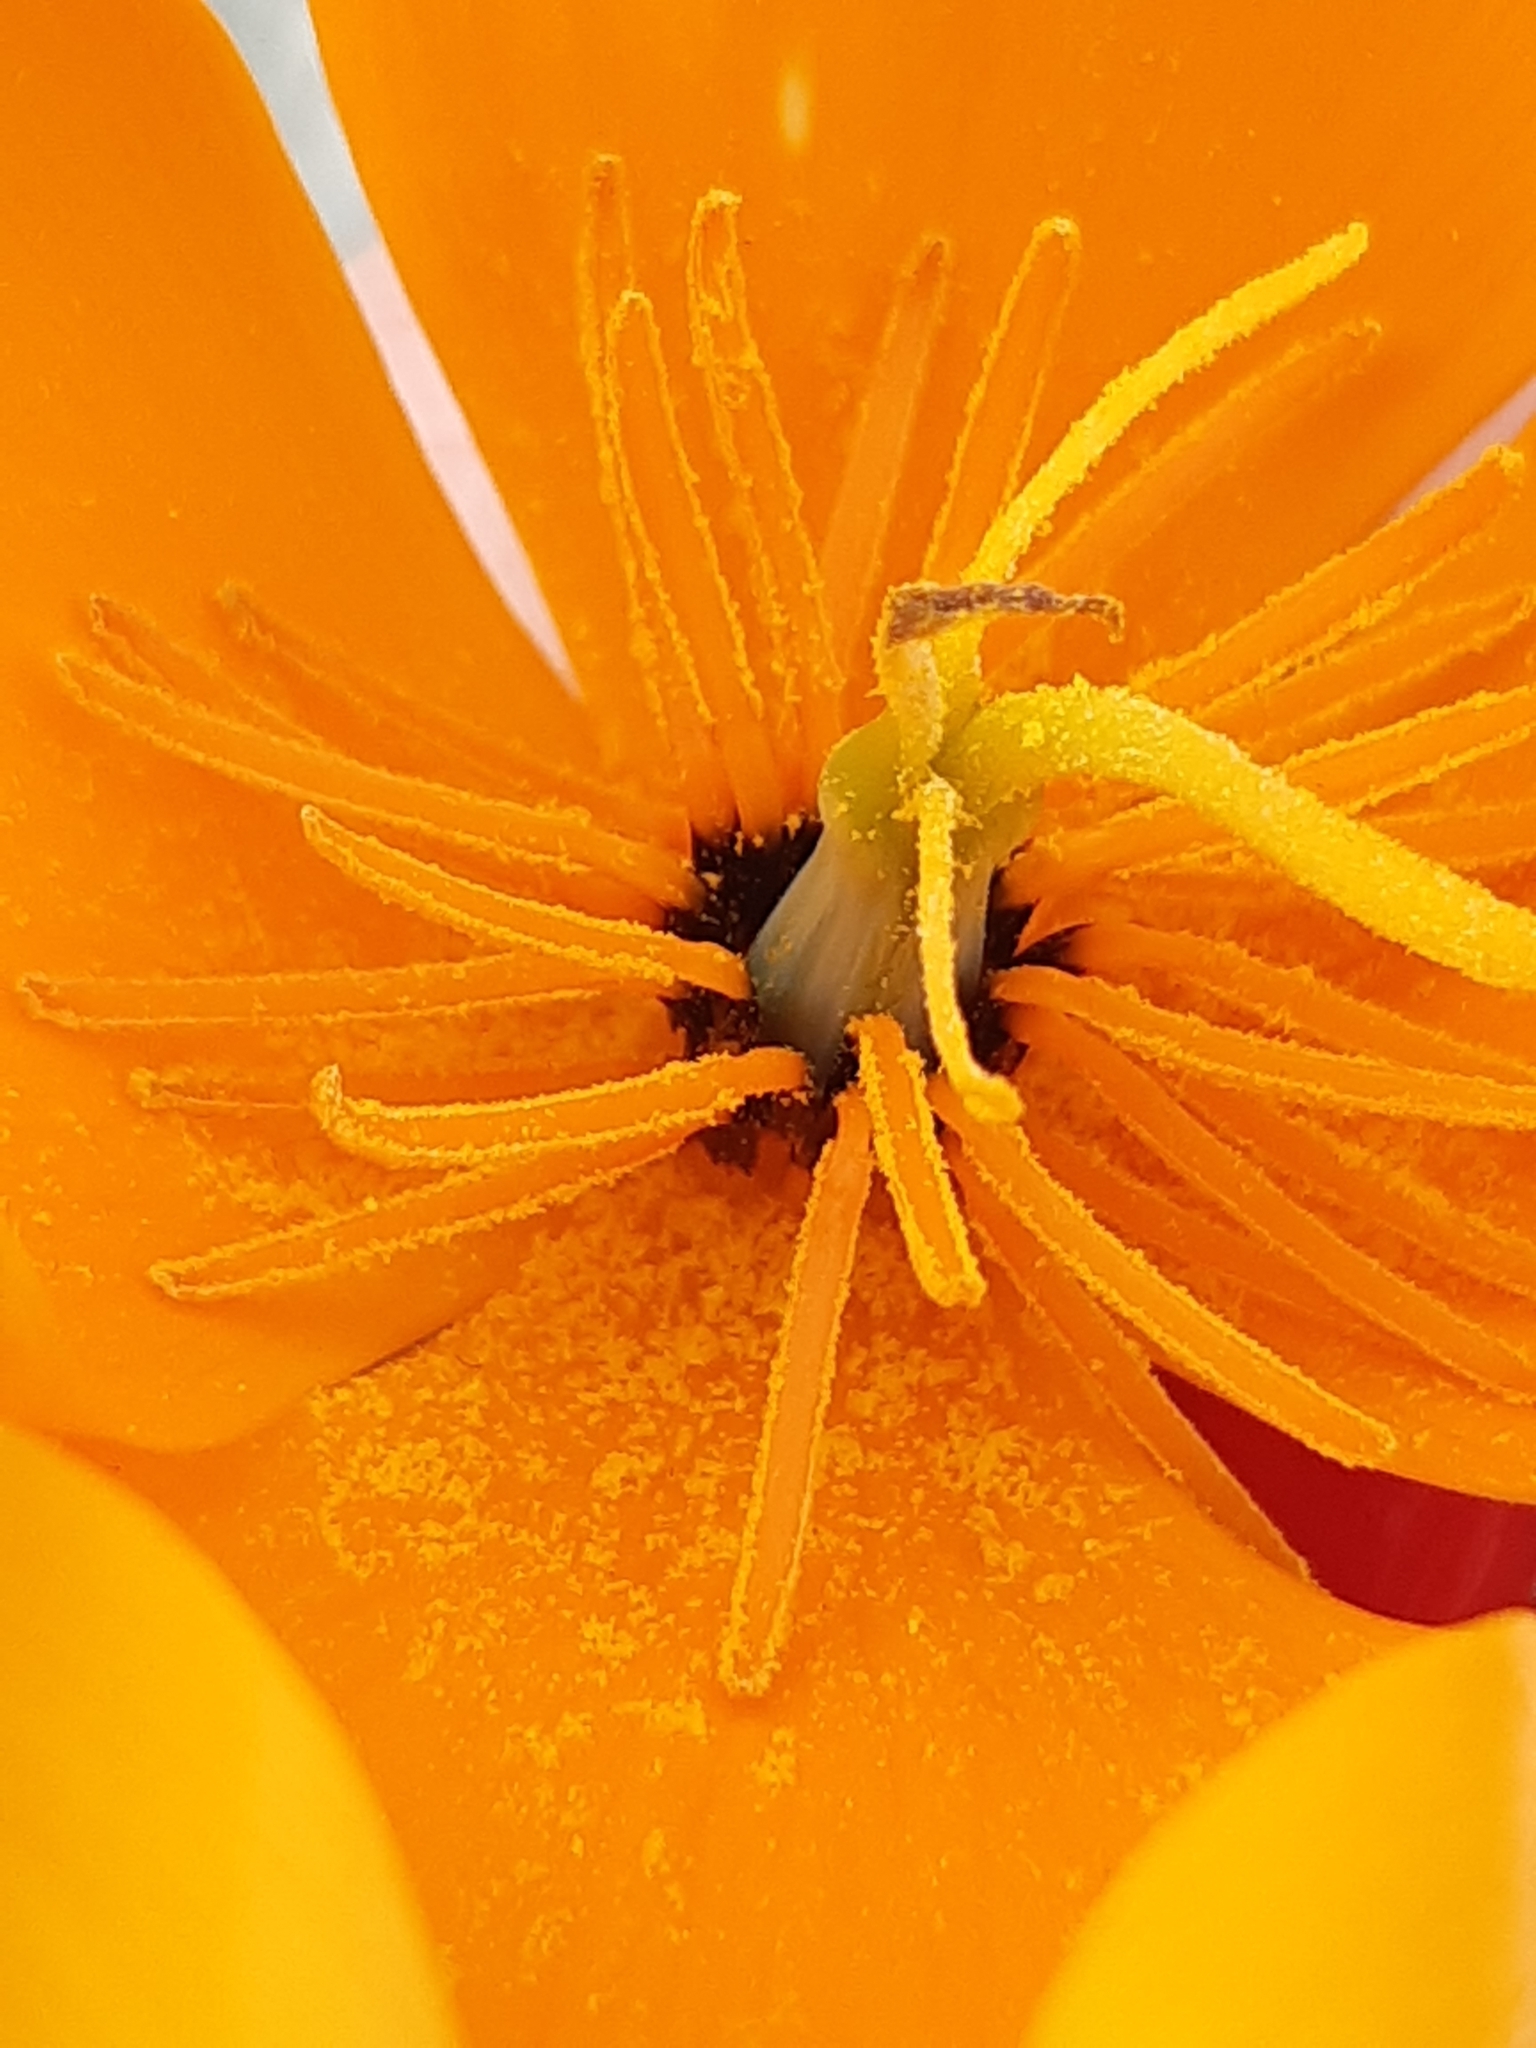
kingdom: Plantae
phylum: Tracheophyta
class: Magnoliopsida
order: Ranunculales
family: Papaveraceae
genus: Eschscholzia
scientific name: Eschscholzia californica
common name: California poppy
